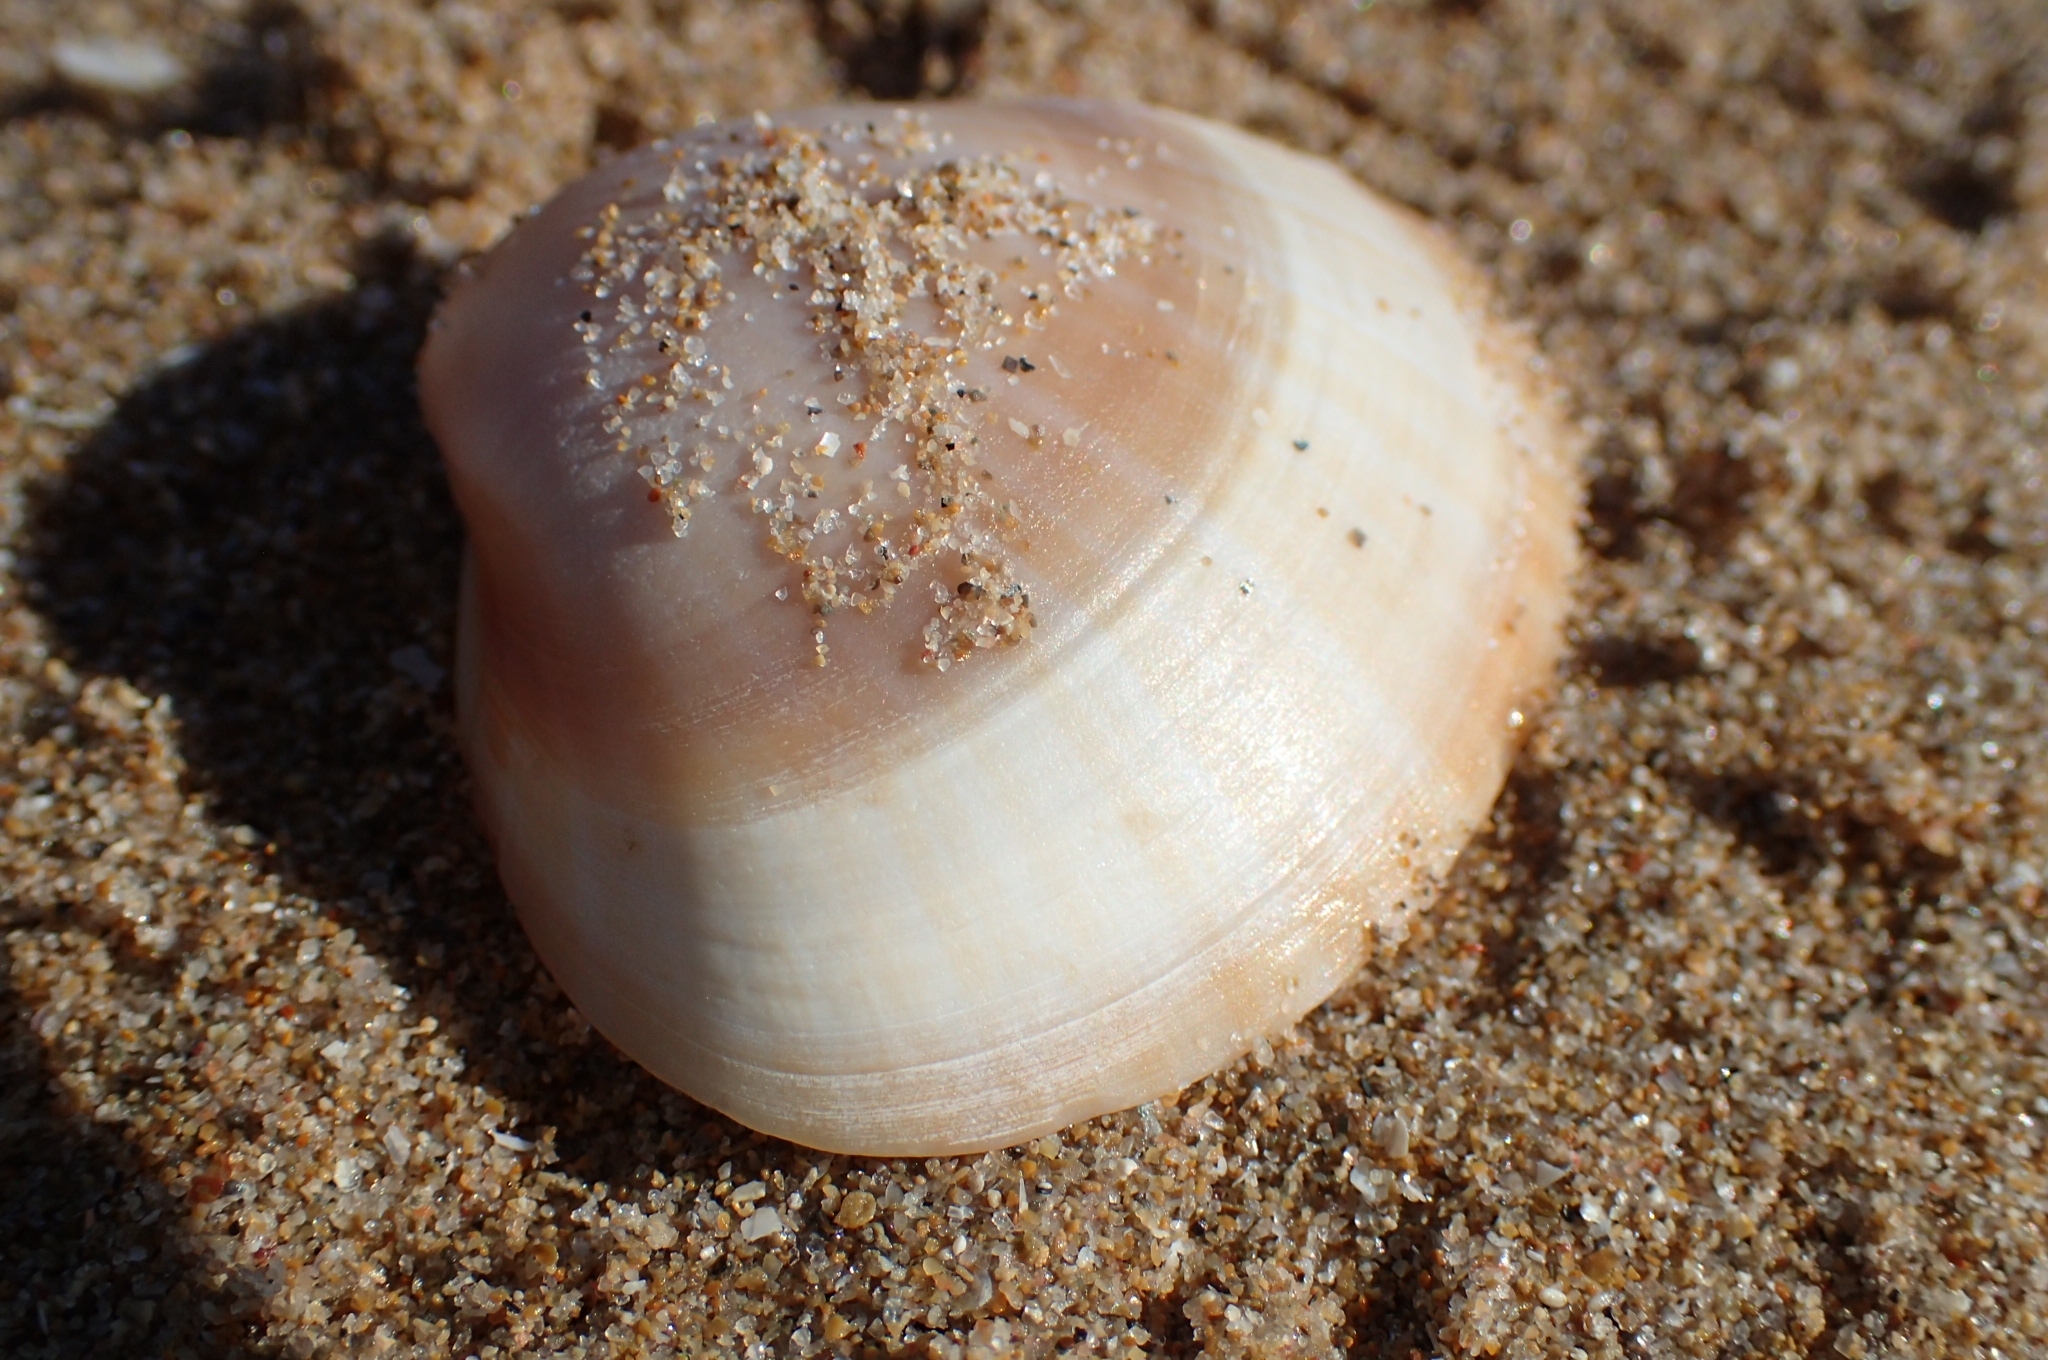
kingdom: Animalia
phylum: Mollusca
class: Bivalvia
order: Venerida
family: Mactridae
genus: Mactra
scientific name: Mactra stultorum
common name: Rayed trough shell
